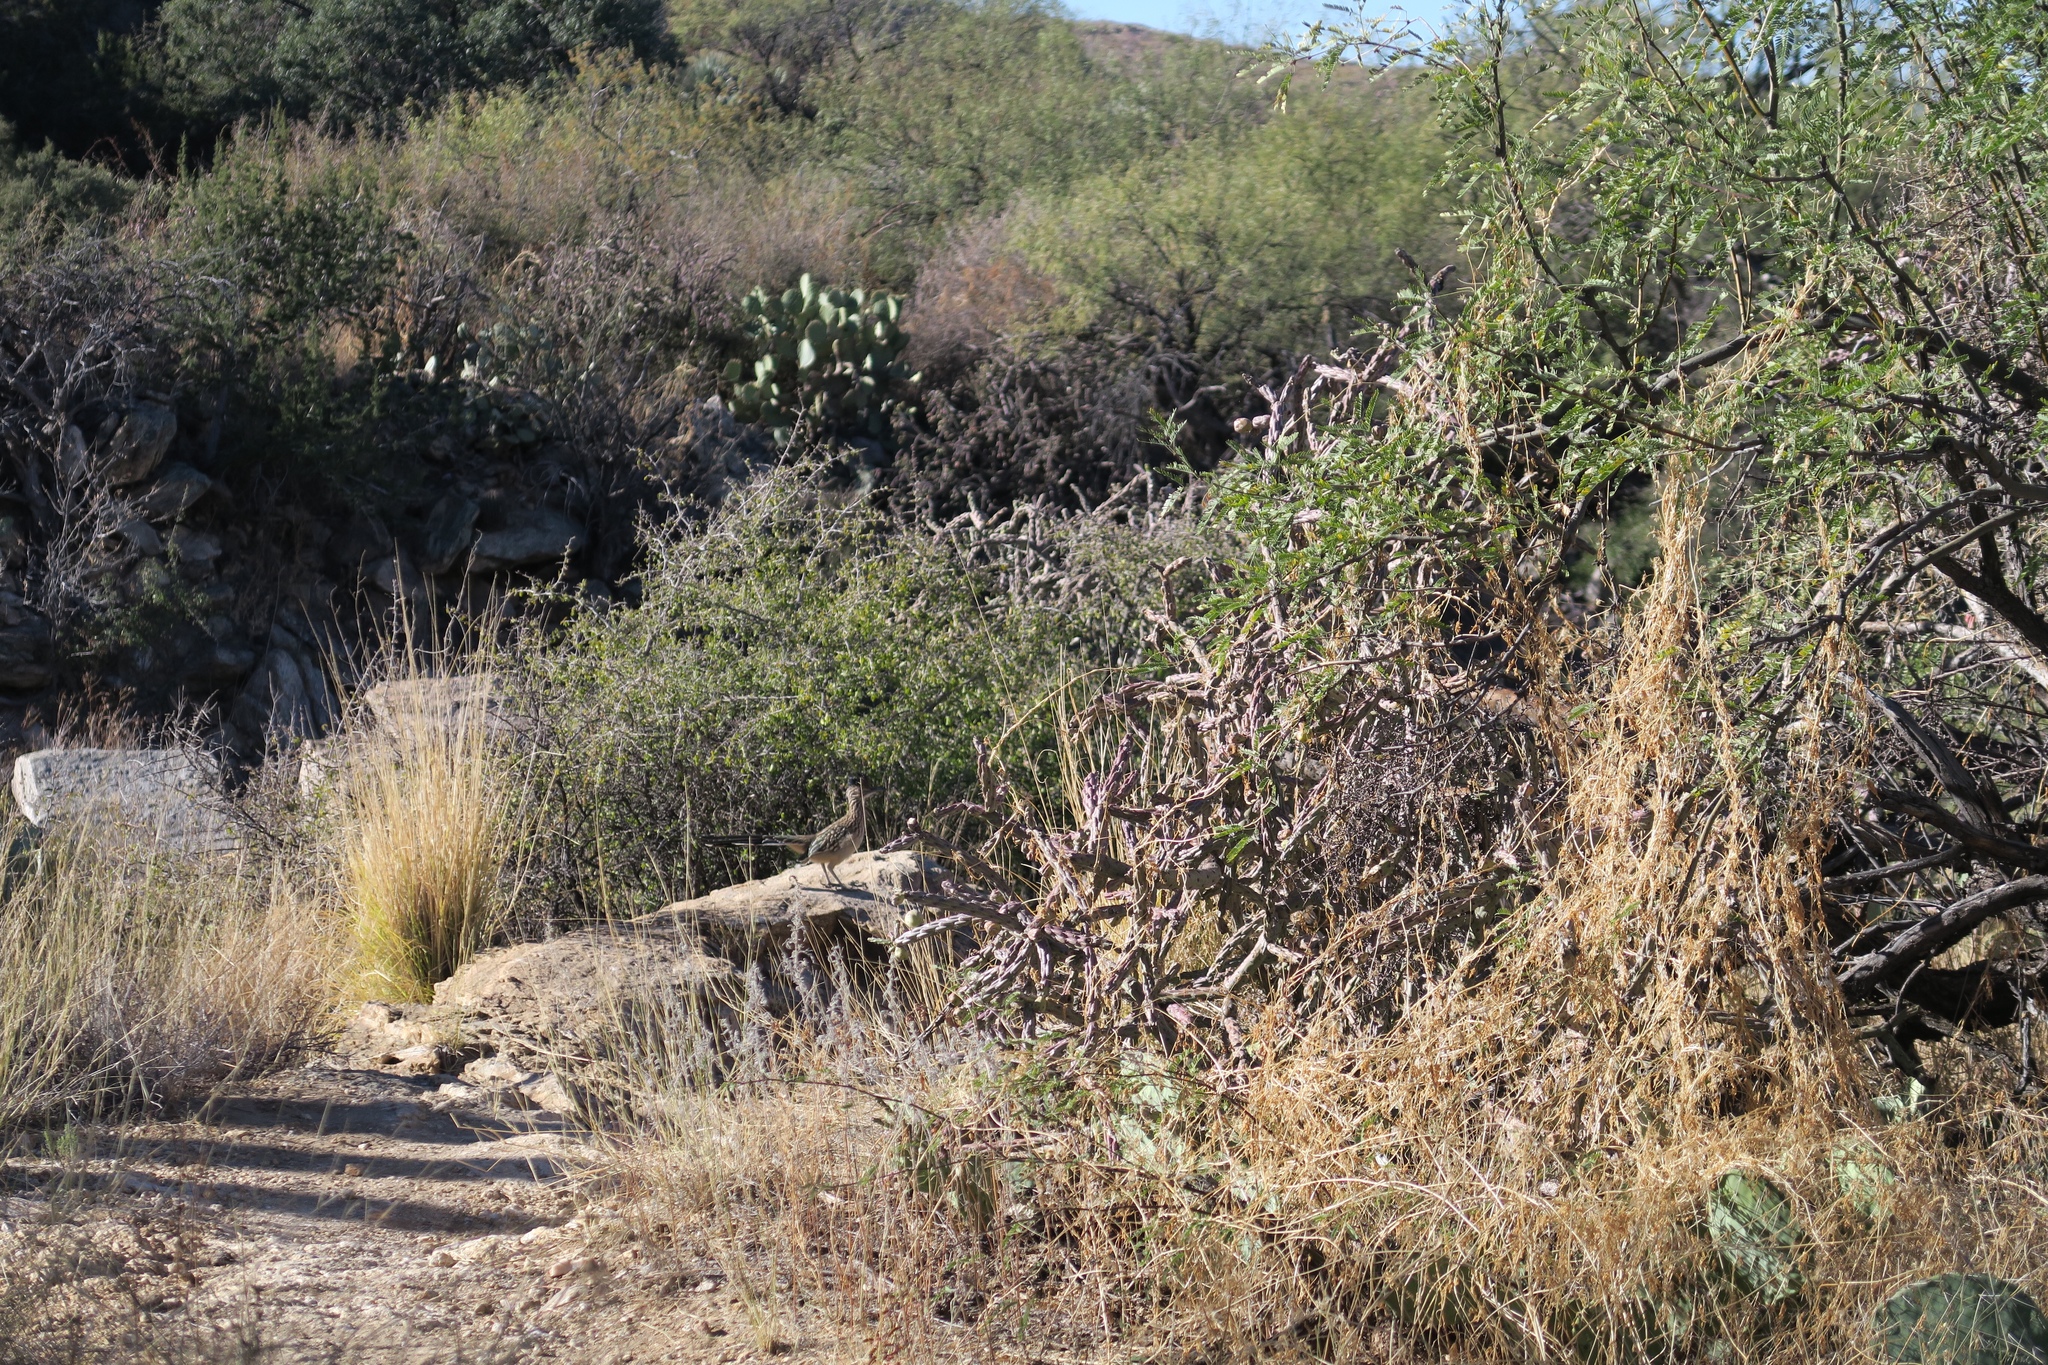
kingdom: Animalia
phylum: Chordata
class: Aves
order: Cuculiformes
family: Cuculidae
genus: Geococcyx
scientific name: Geococcyx californianus
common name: Greater roadrunner
